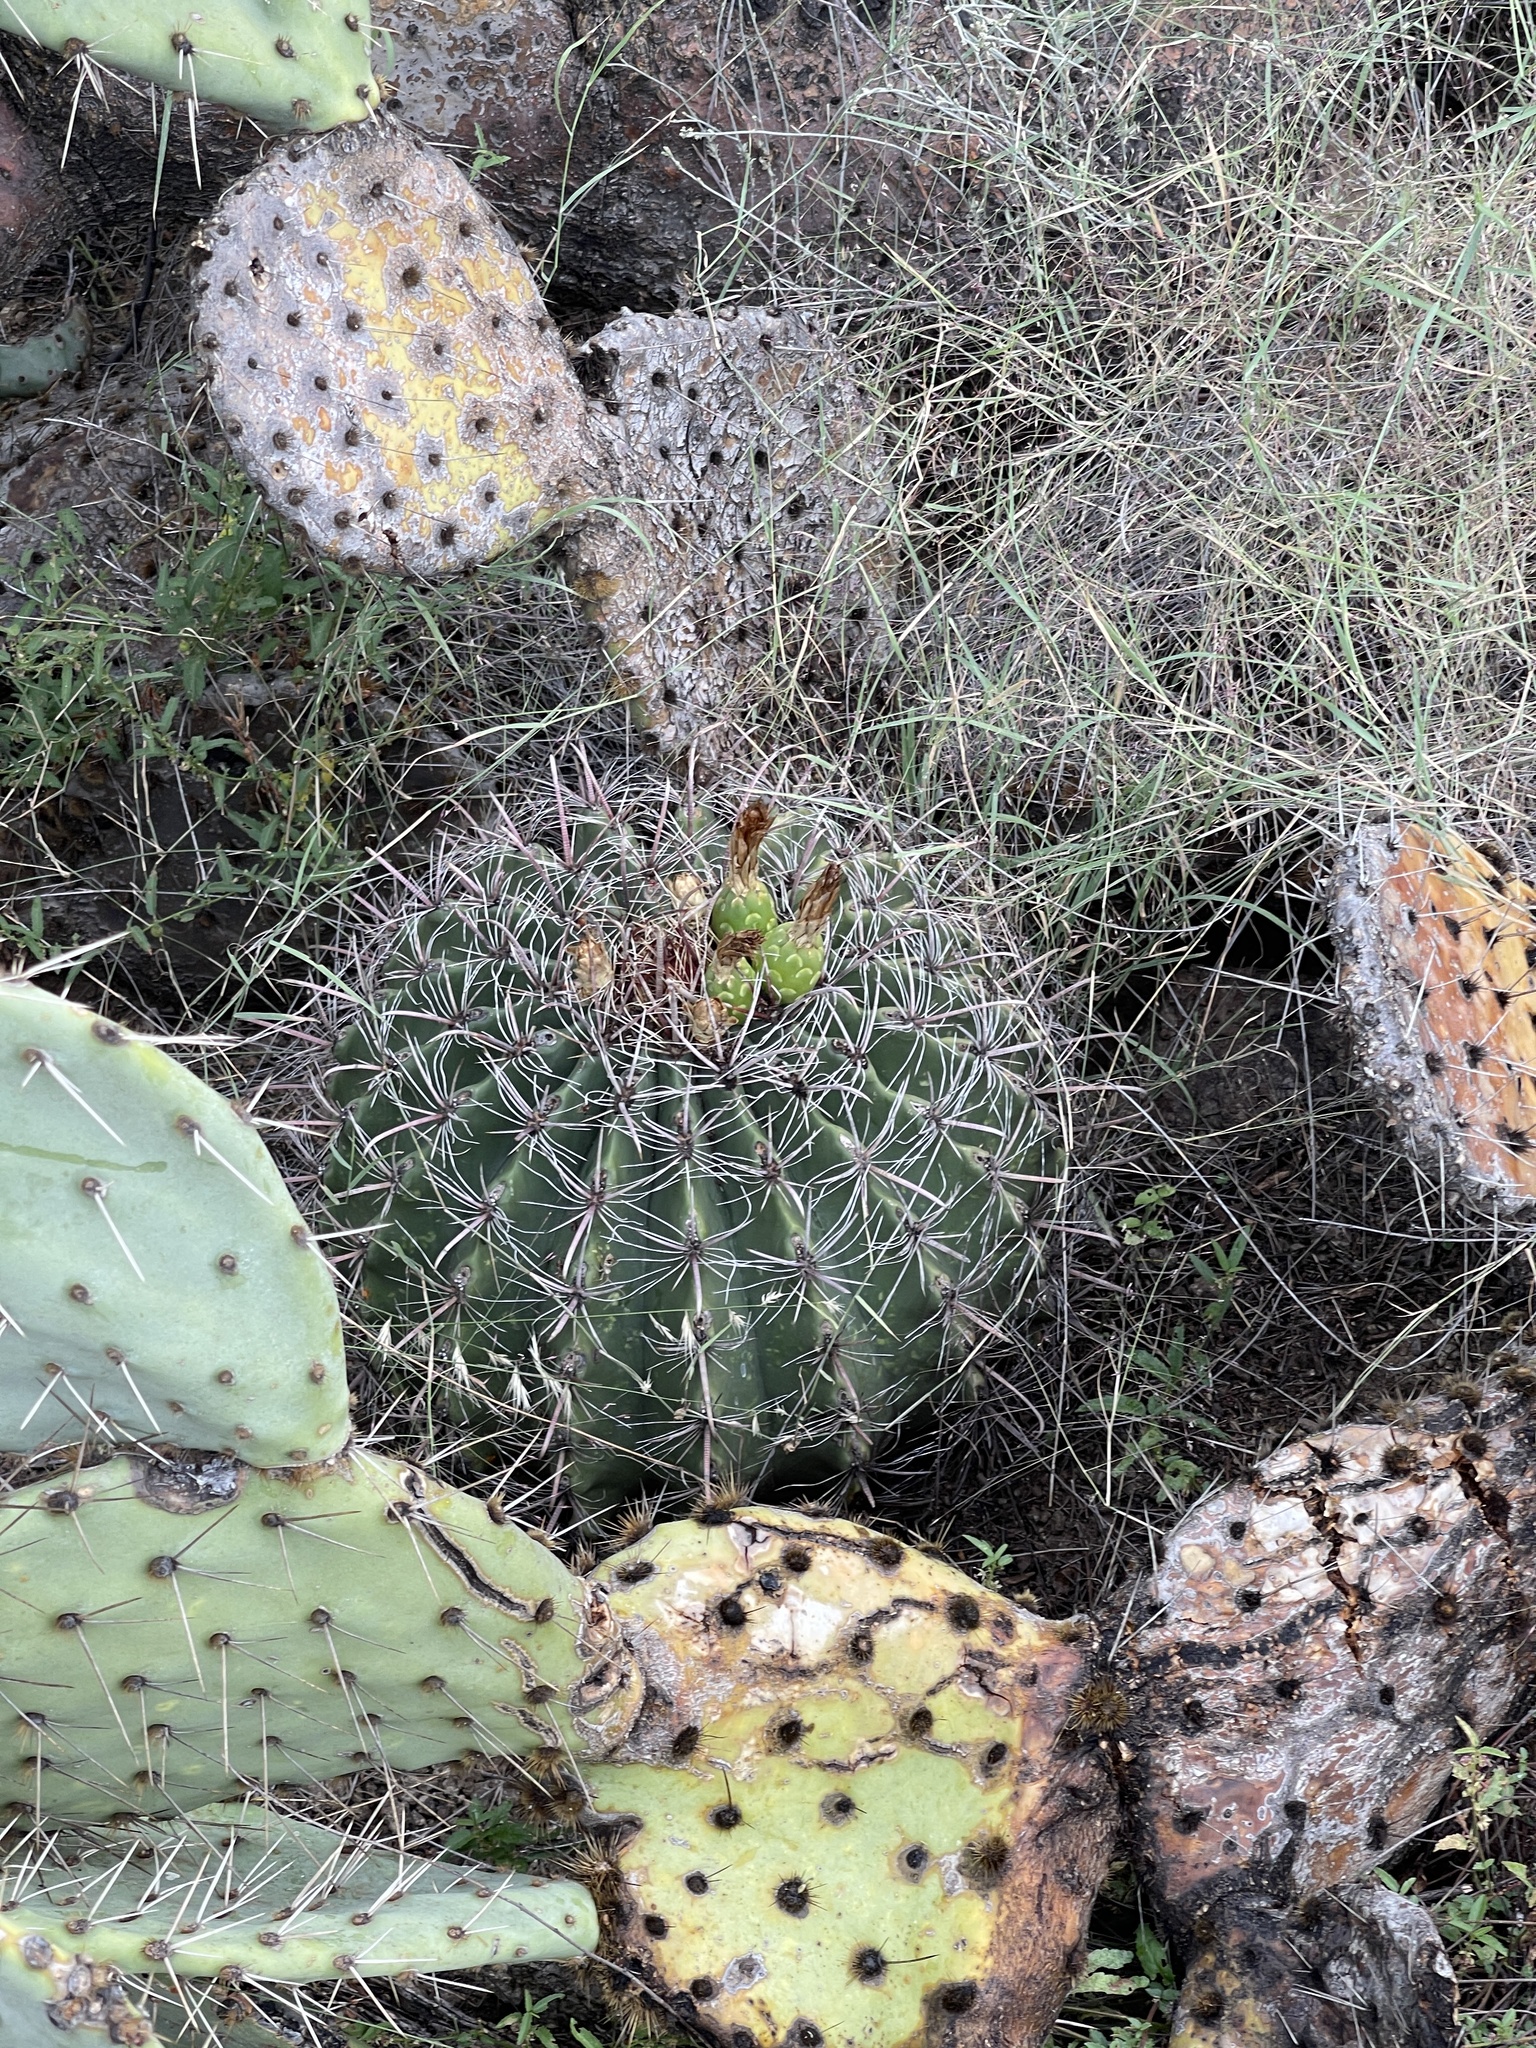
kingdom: Plantae
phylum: Tracheophyta
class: Magnoliopsida
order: Caryophyllales
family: Cactaceae
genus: Ferocactus
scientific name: Ferocactus wislizeni
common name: Candy barrel cactus
